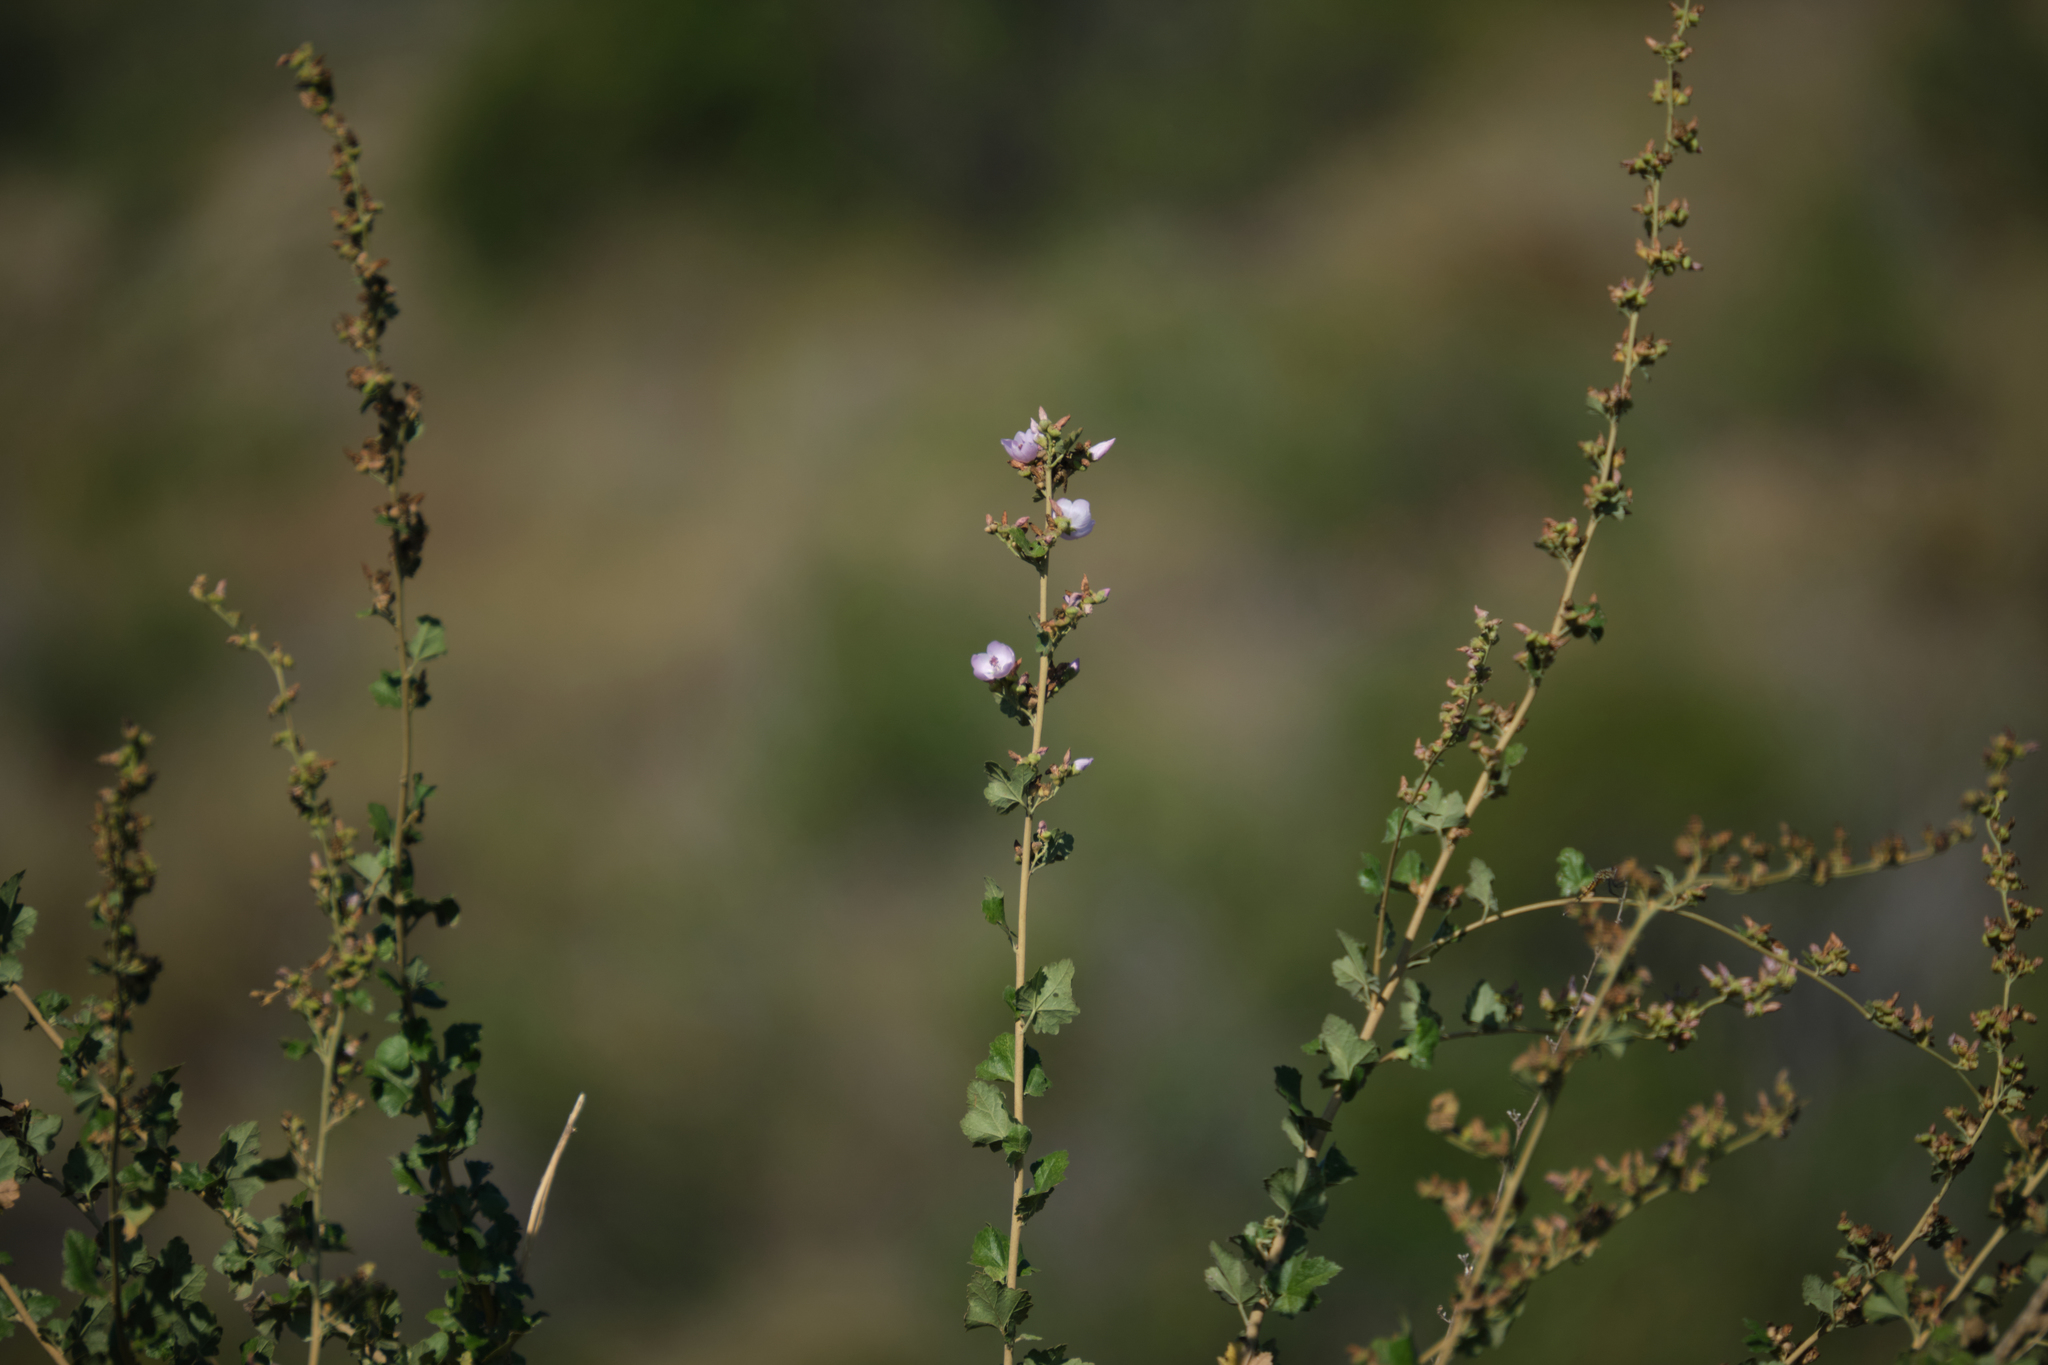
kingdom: Plantae
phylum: Tracheophyta
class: Magnoliopsida
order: Malvales
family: Malvaceae
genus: Malacothamnus
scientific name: Malacothamnus fasciculatus
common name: Sant cruz island bush-mallow
